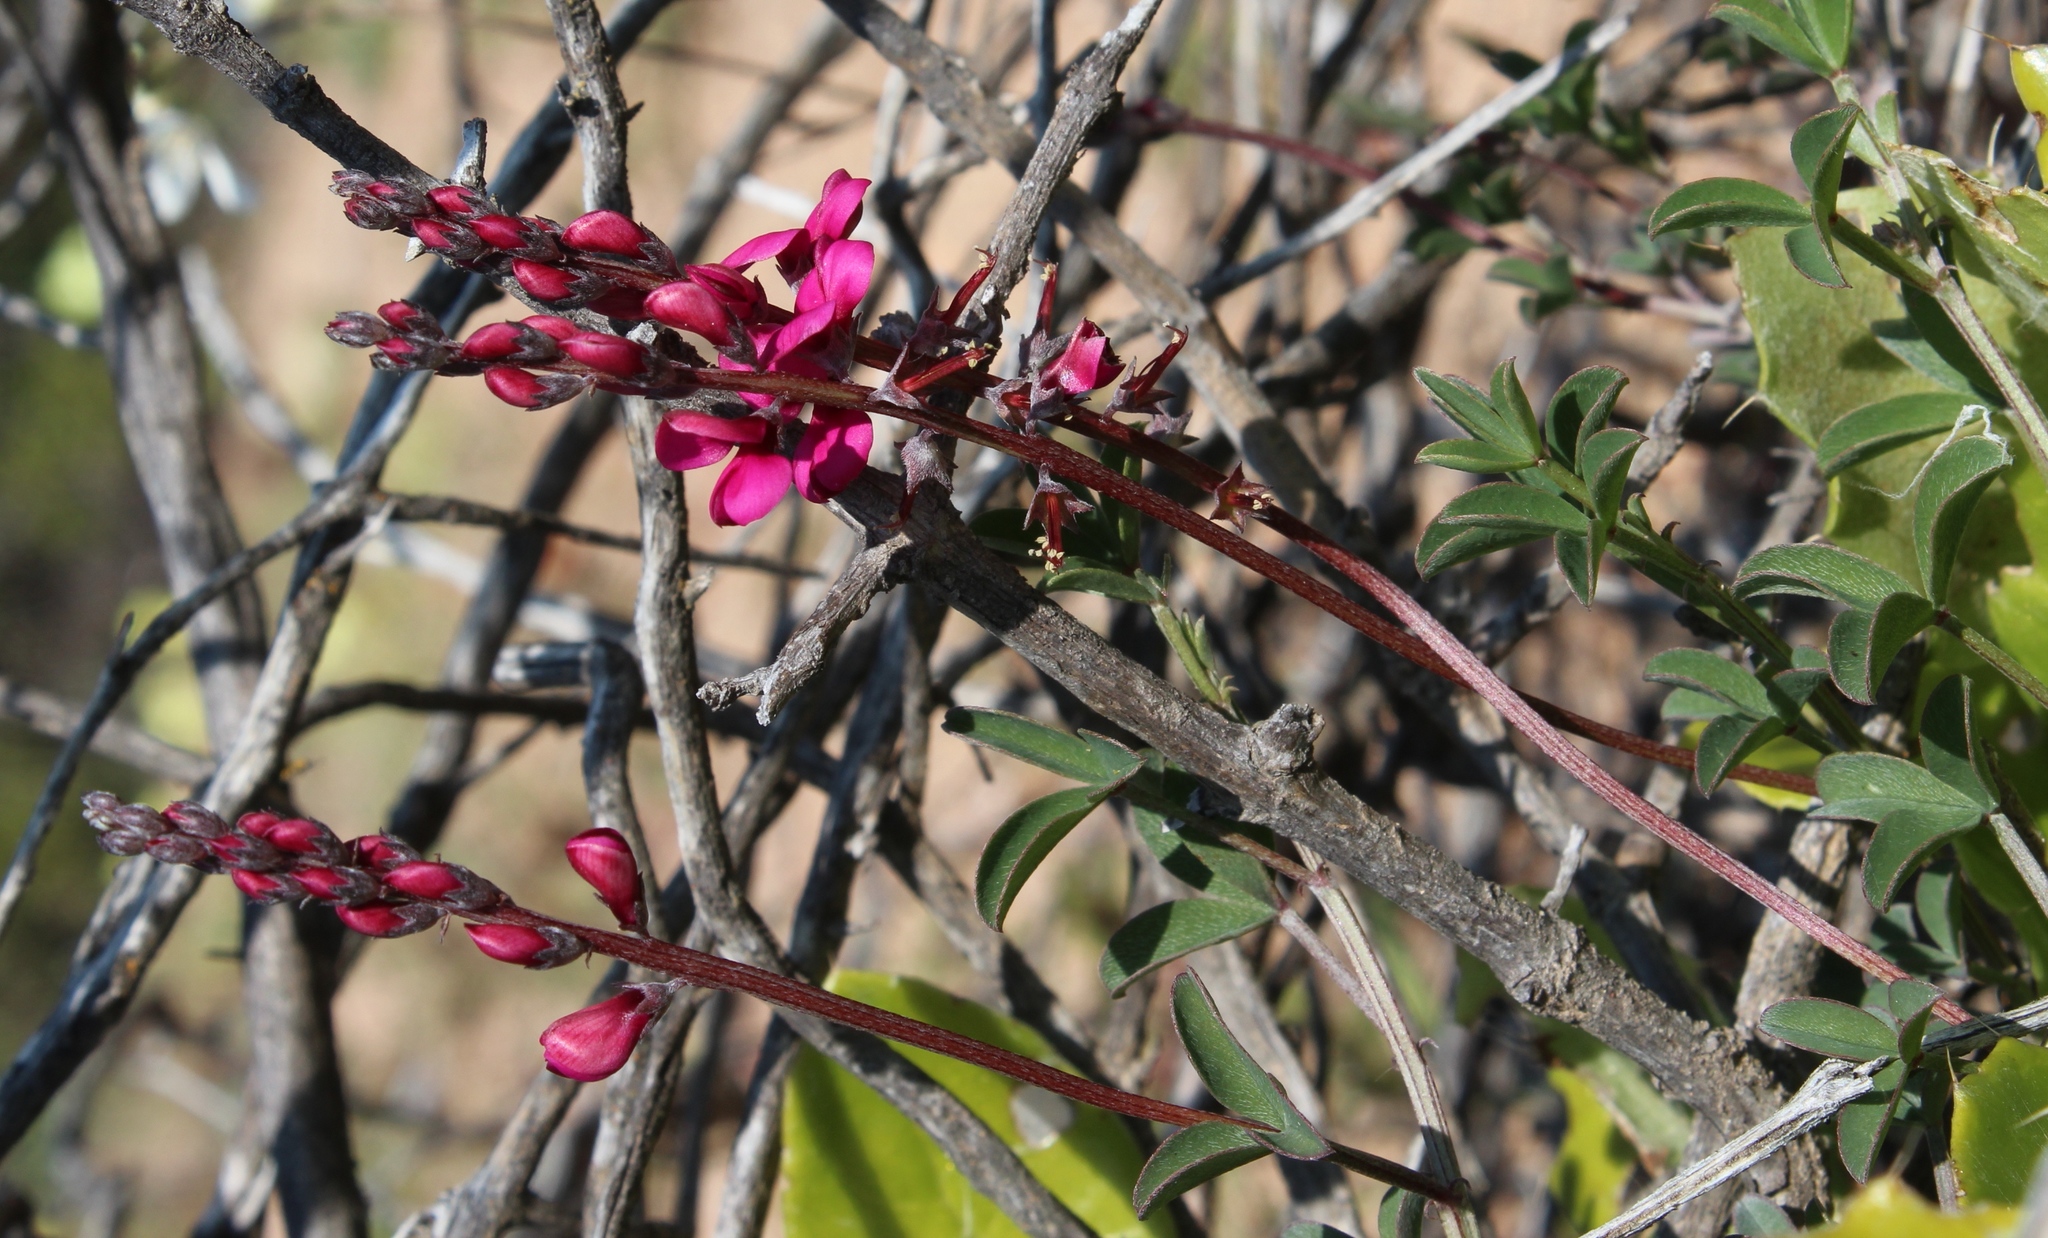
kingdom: Plantae
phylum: Tracheophyta
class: Magnoliopsida
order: Fabales
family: Fabaceae
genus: Indigofera
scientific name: Indigofera meyeriana
